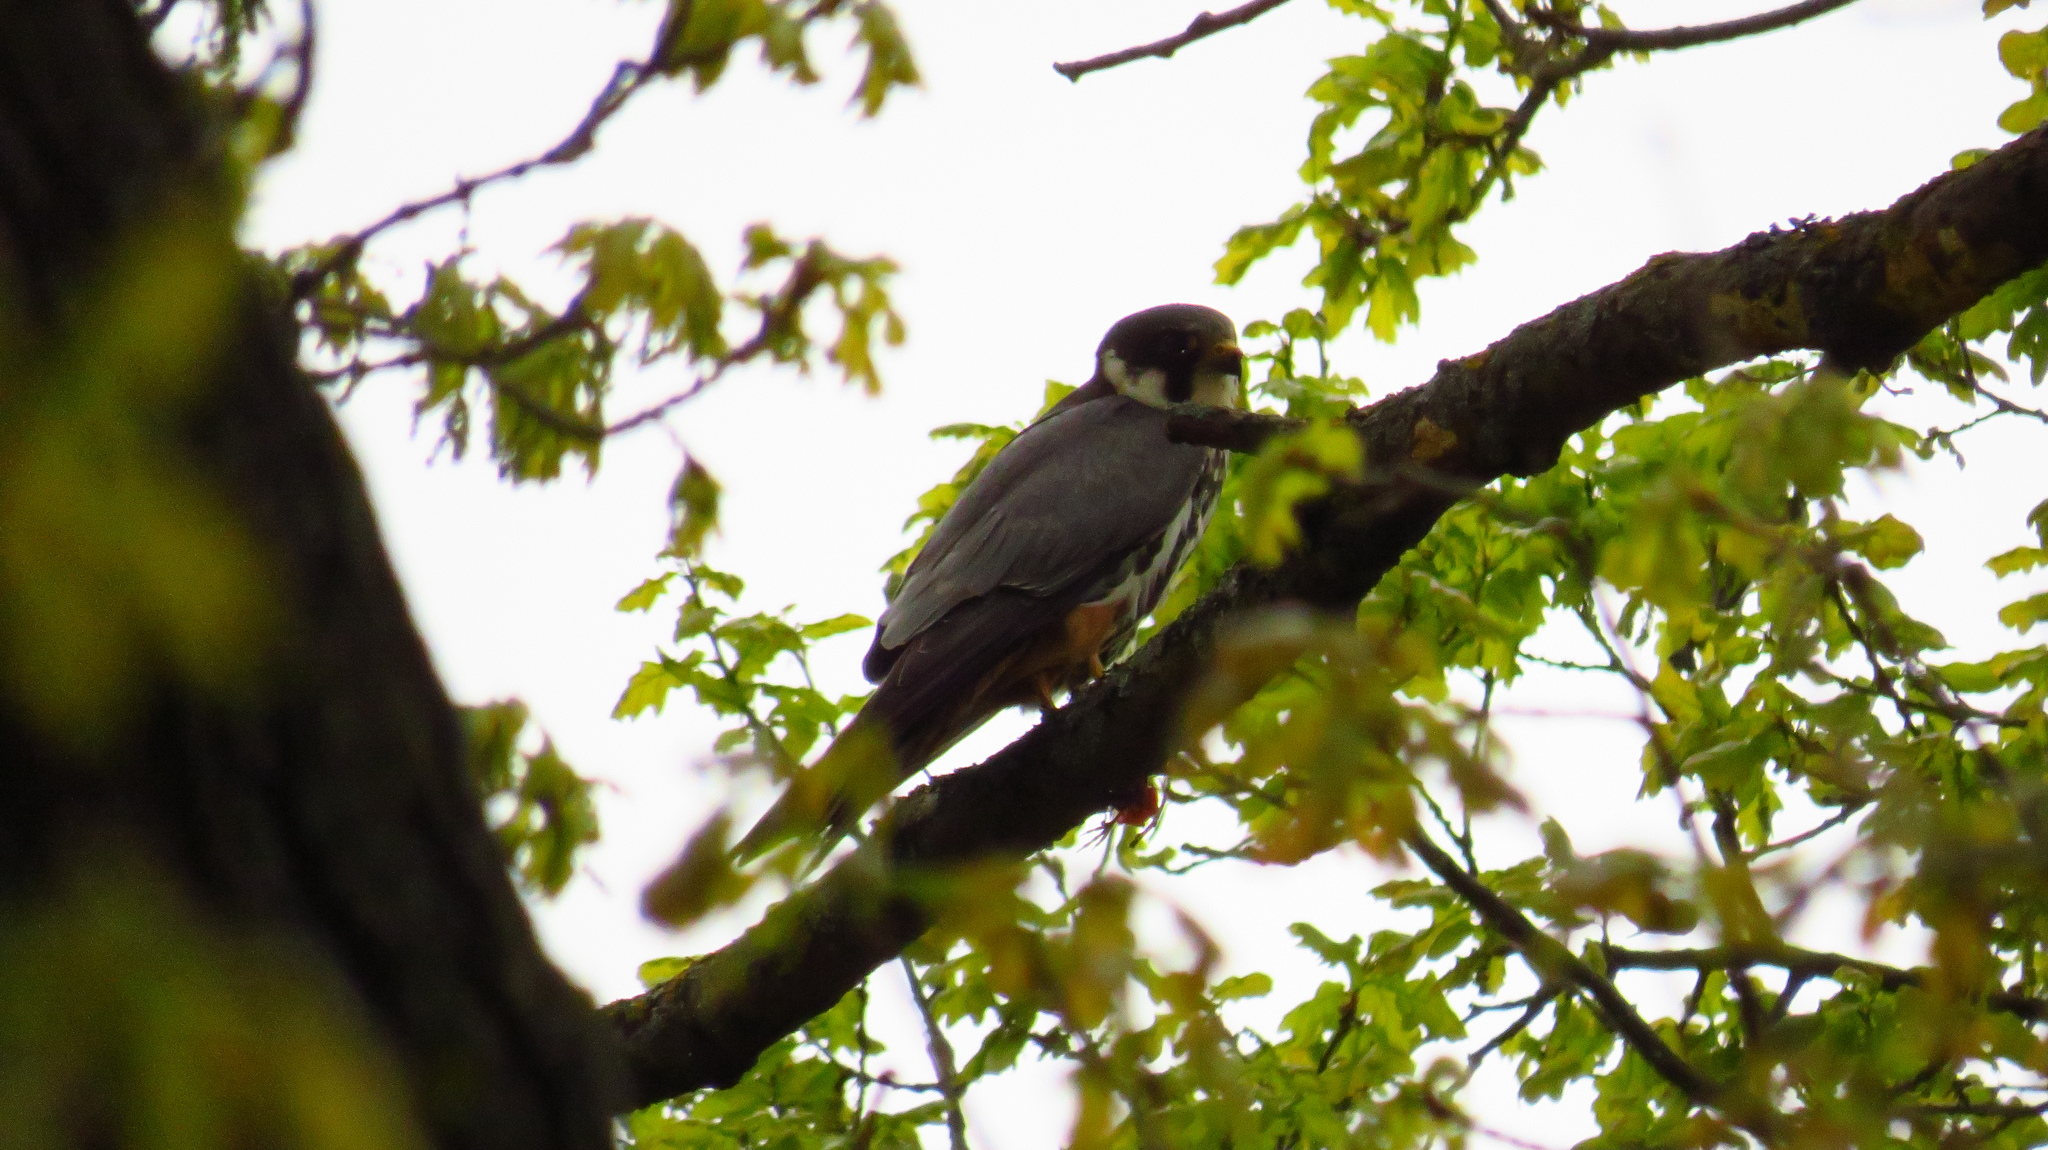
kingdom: Animalia
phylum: Chordata
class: Aves
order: Falconiformes
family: Falconidae
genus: Falco
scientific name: Falco subbuteo
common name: Eurasian hobby
